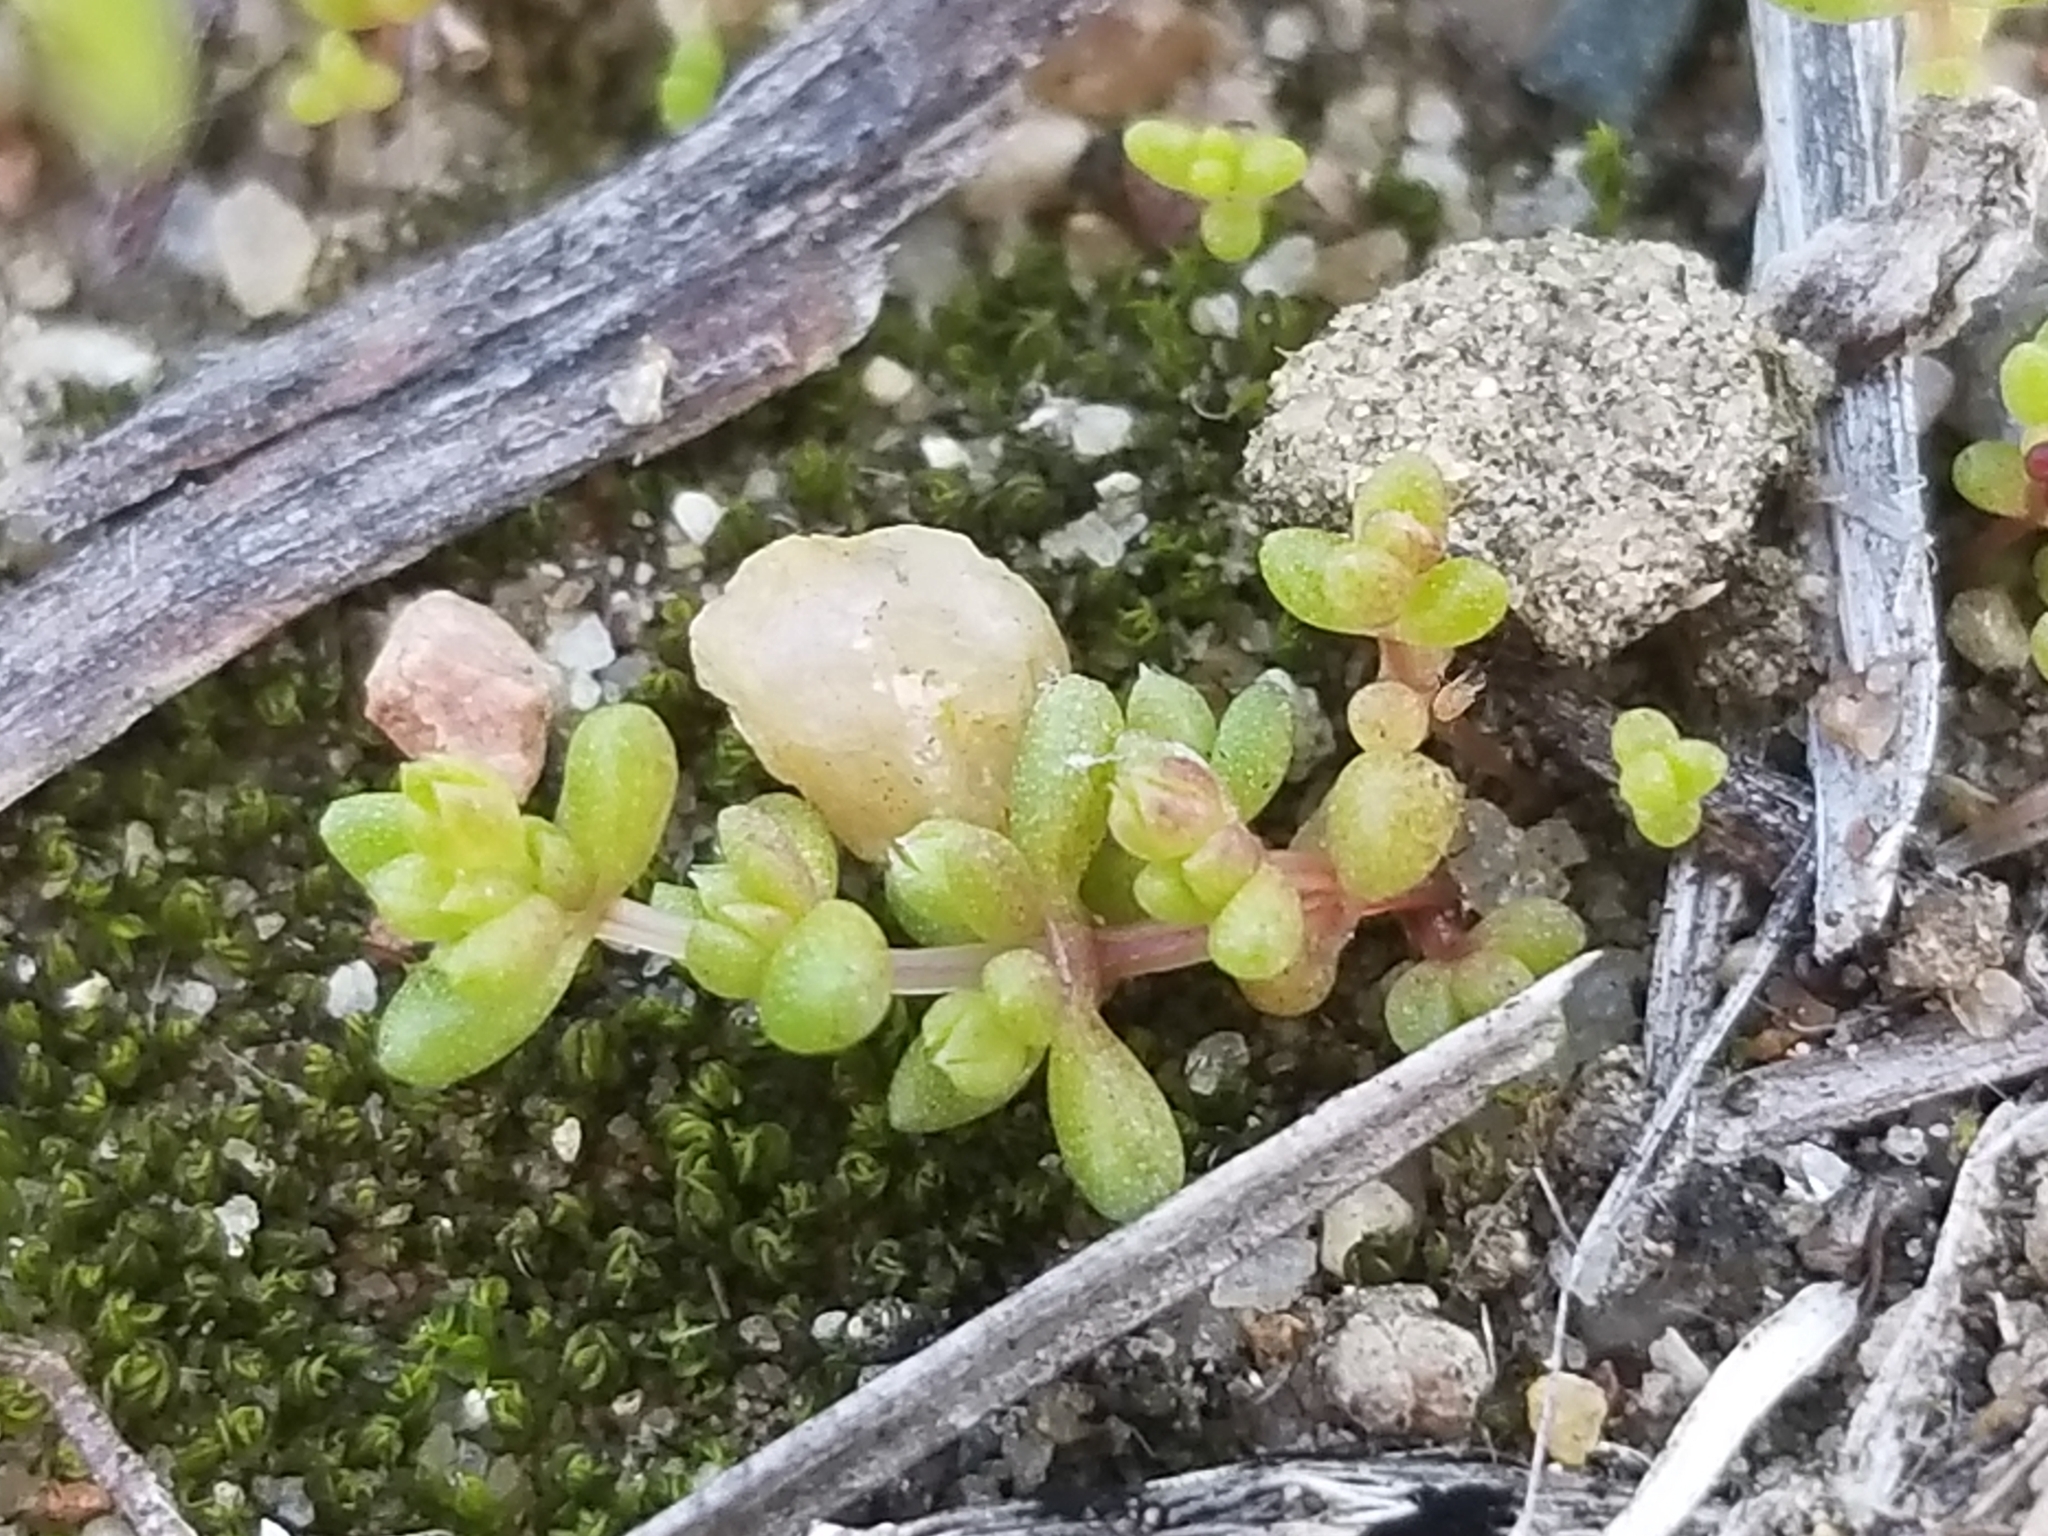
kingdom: Plantae
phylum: Tracheophyta
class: Magnoliopsida
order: Saxifragales
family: Crassulaceae
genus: Crassula
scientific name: Crassula connata
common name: Erect pygmyweed
